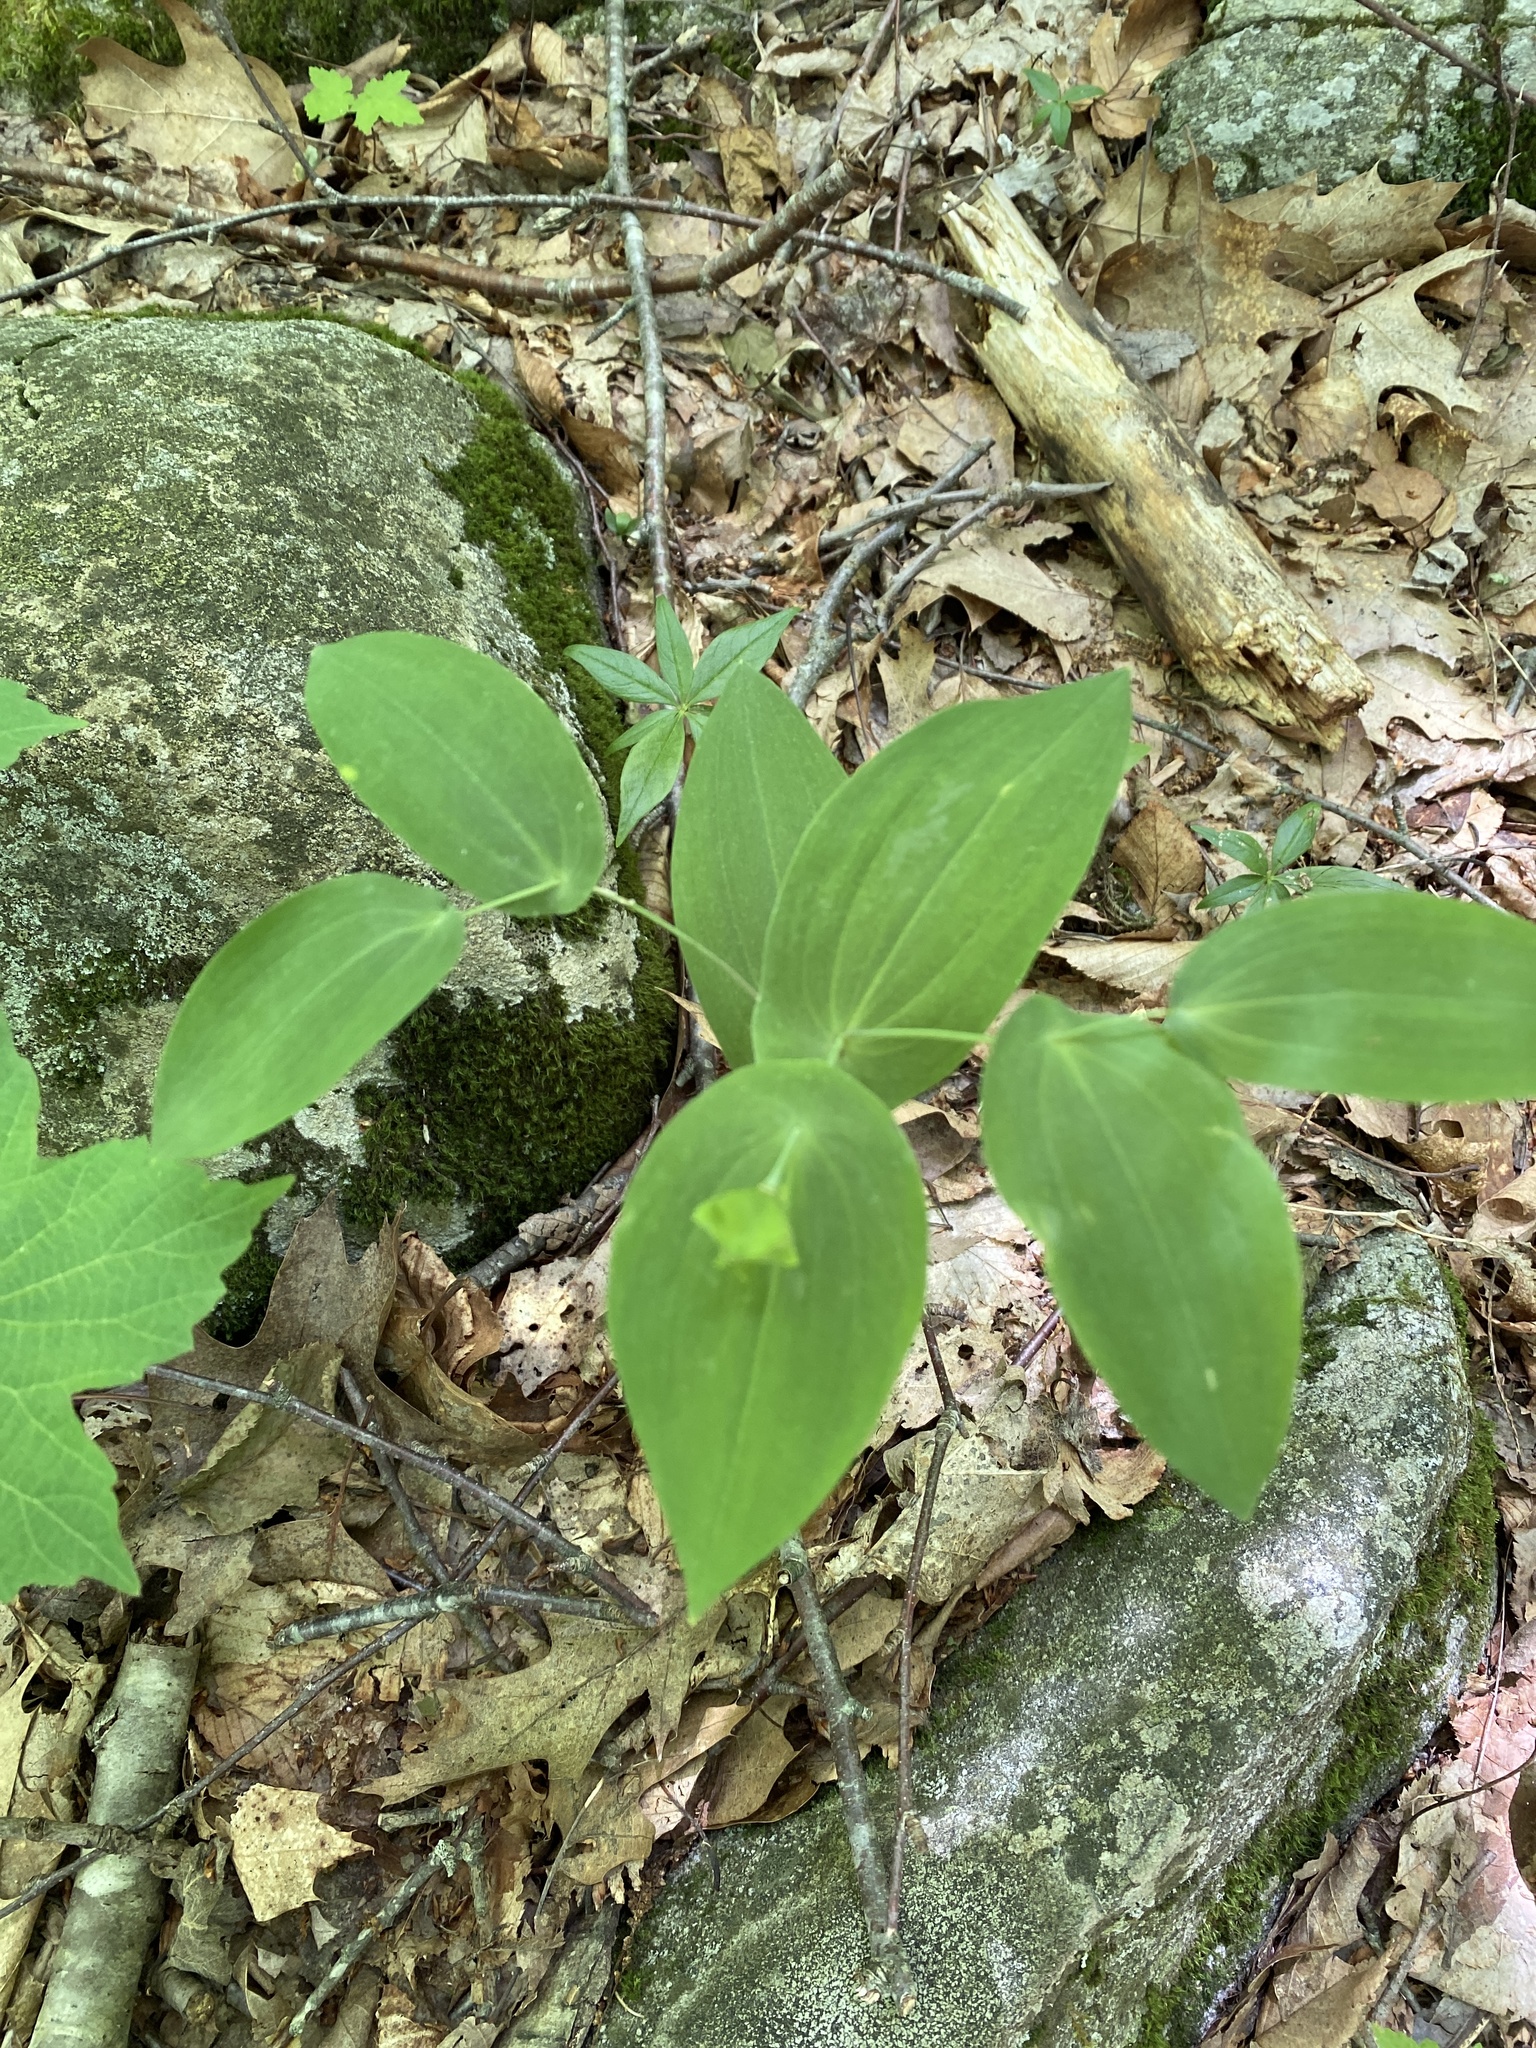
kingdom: Plantae
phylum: Tracheophyta
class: Liliopsida
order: Liliales
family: Colchicaceae
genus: Uvularia
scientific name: Uvularia perfoliata
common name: Perfoliate bellwort
